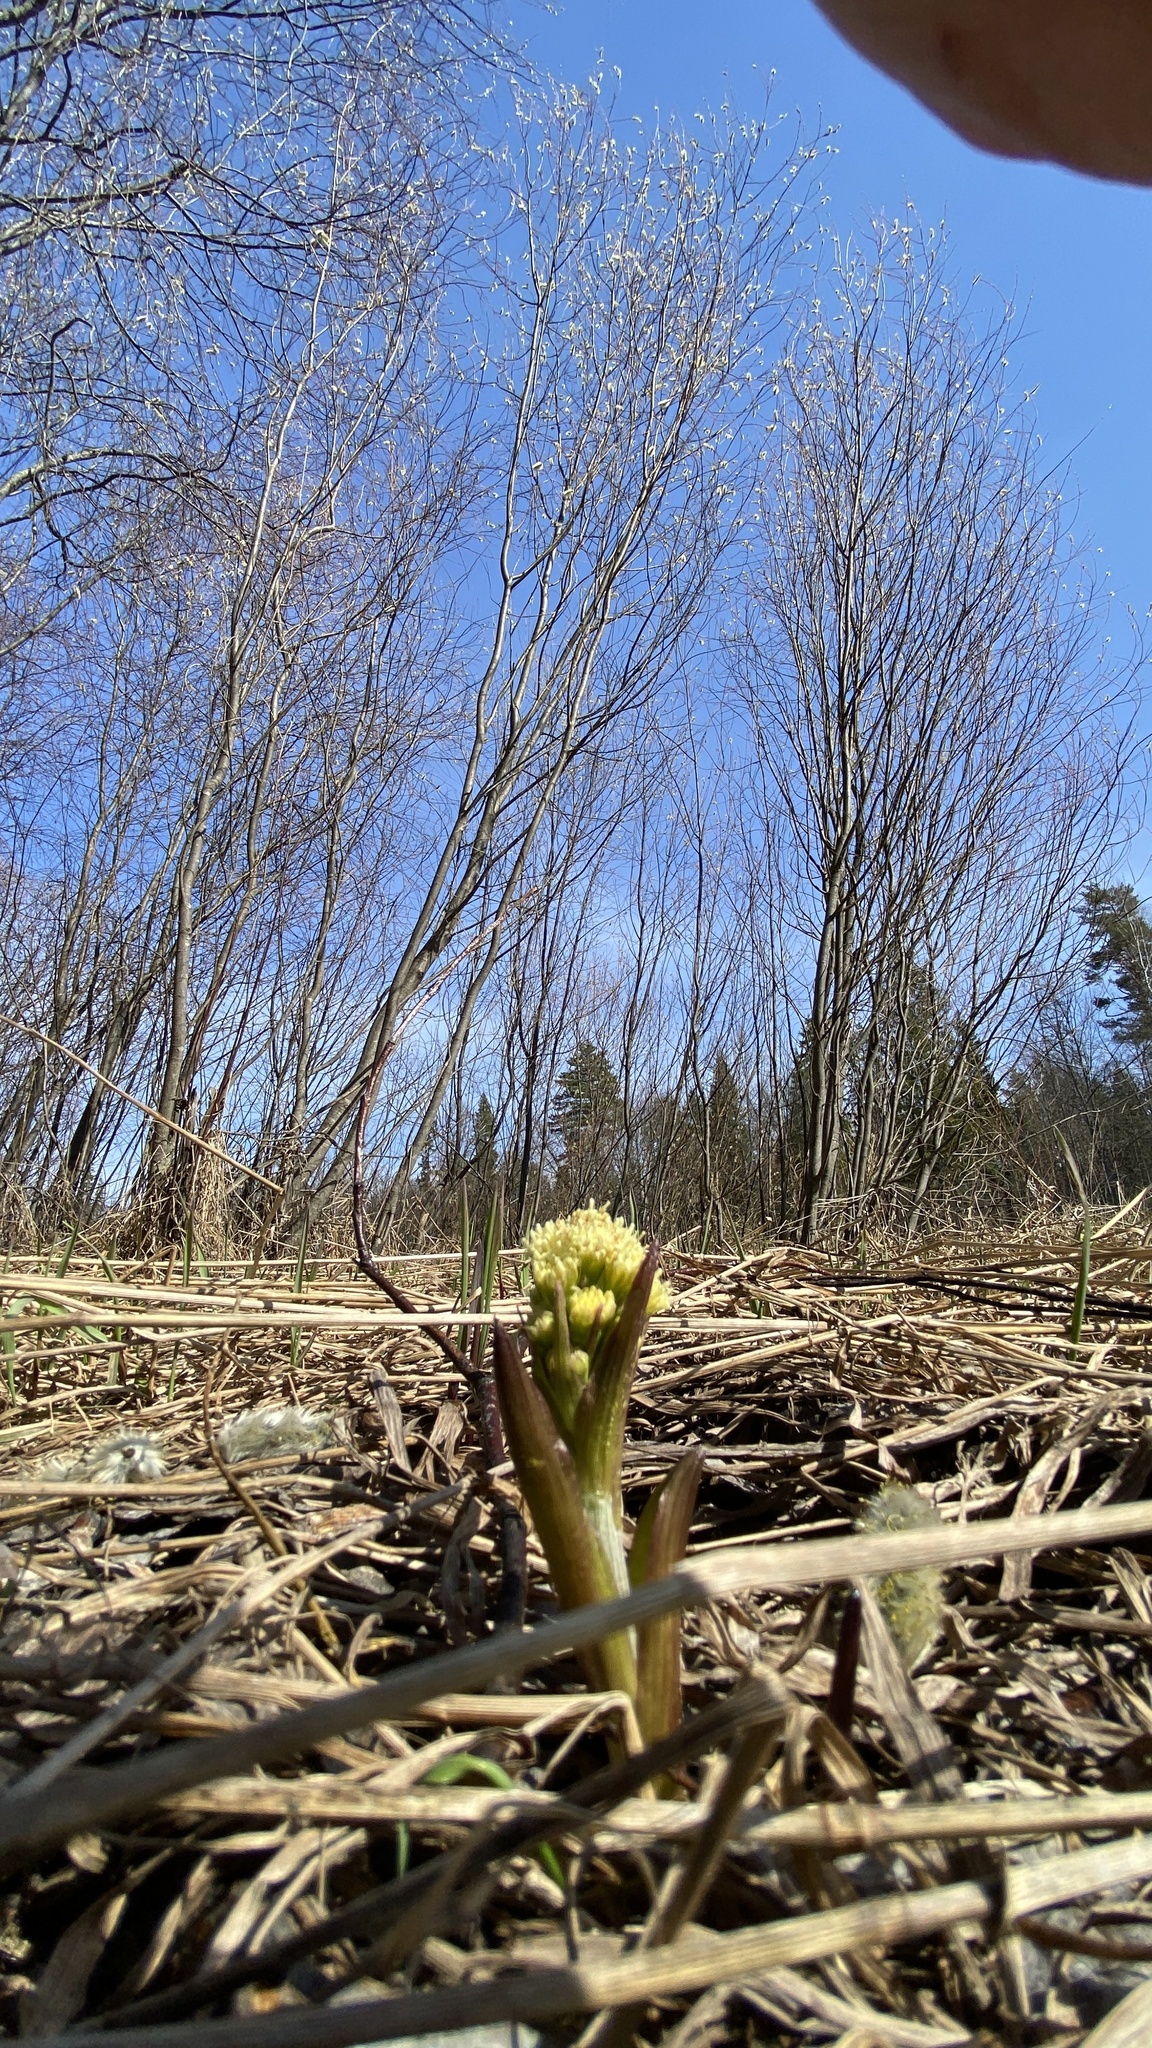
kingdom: Plantae
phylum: Tracheophyta
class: Magnoliopsida
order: Asterales
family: Asteraceae
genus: Petasites
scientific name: Petasites spurius
